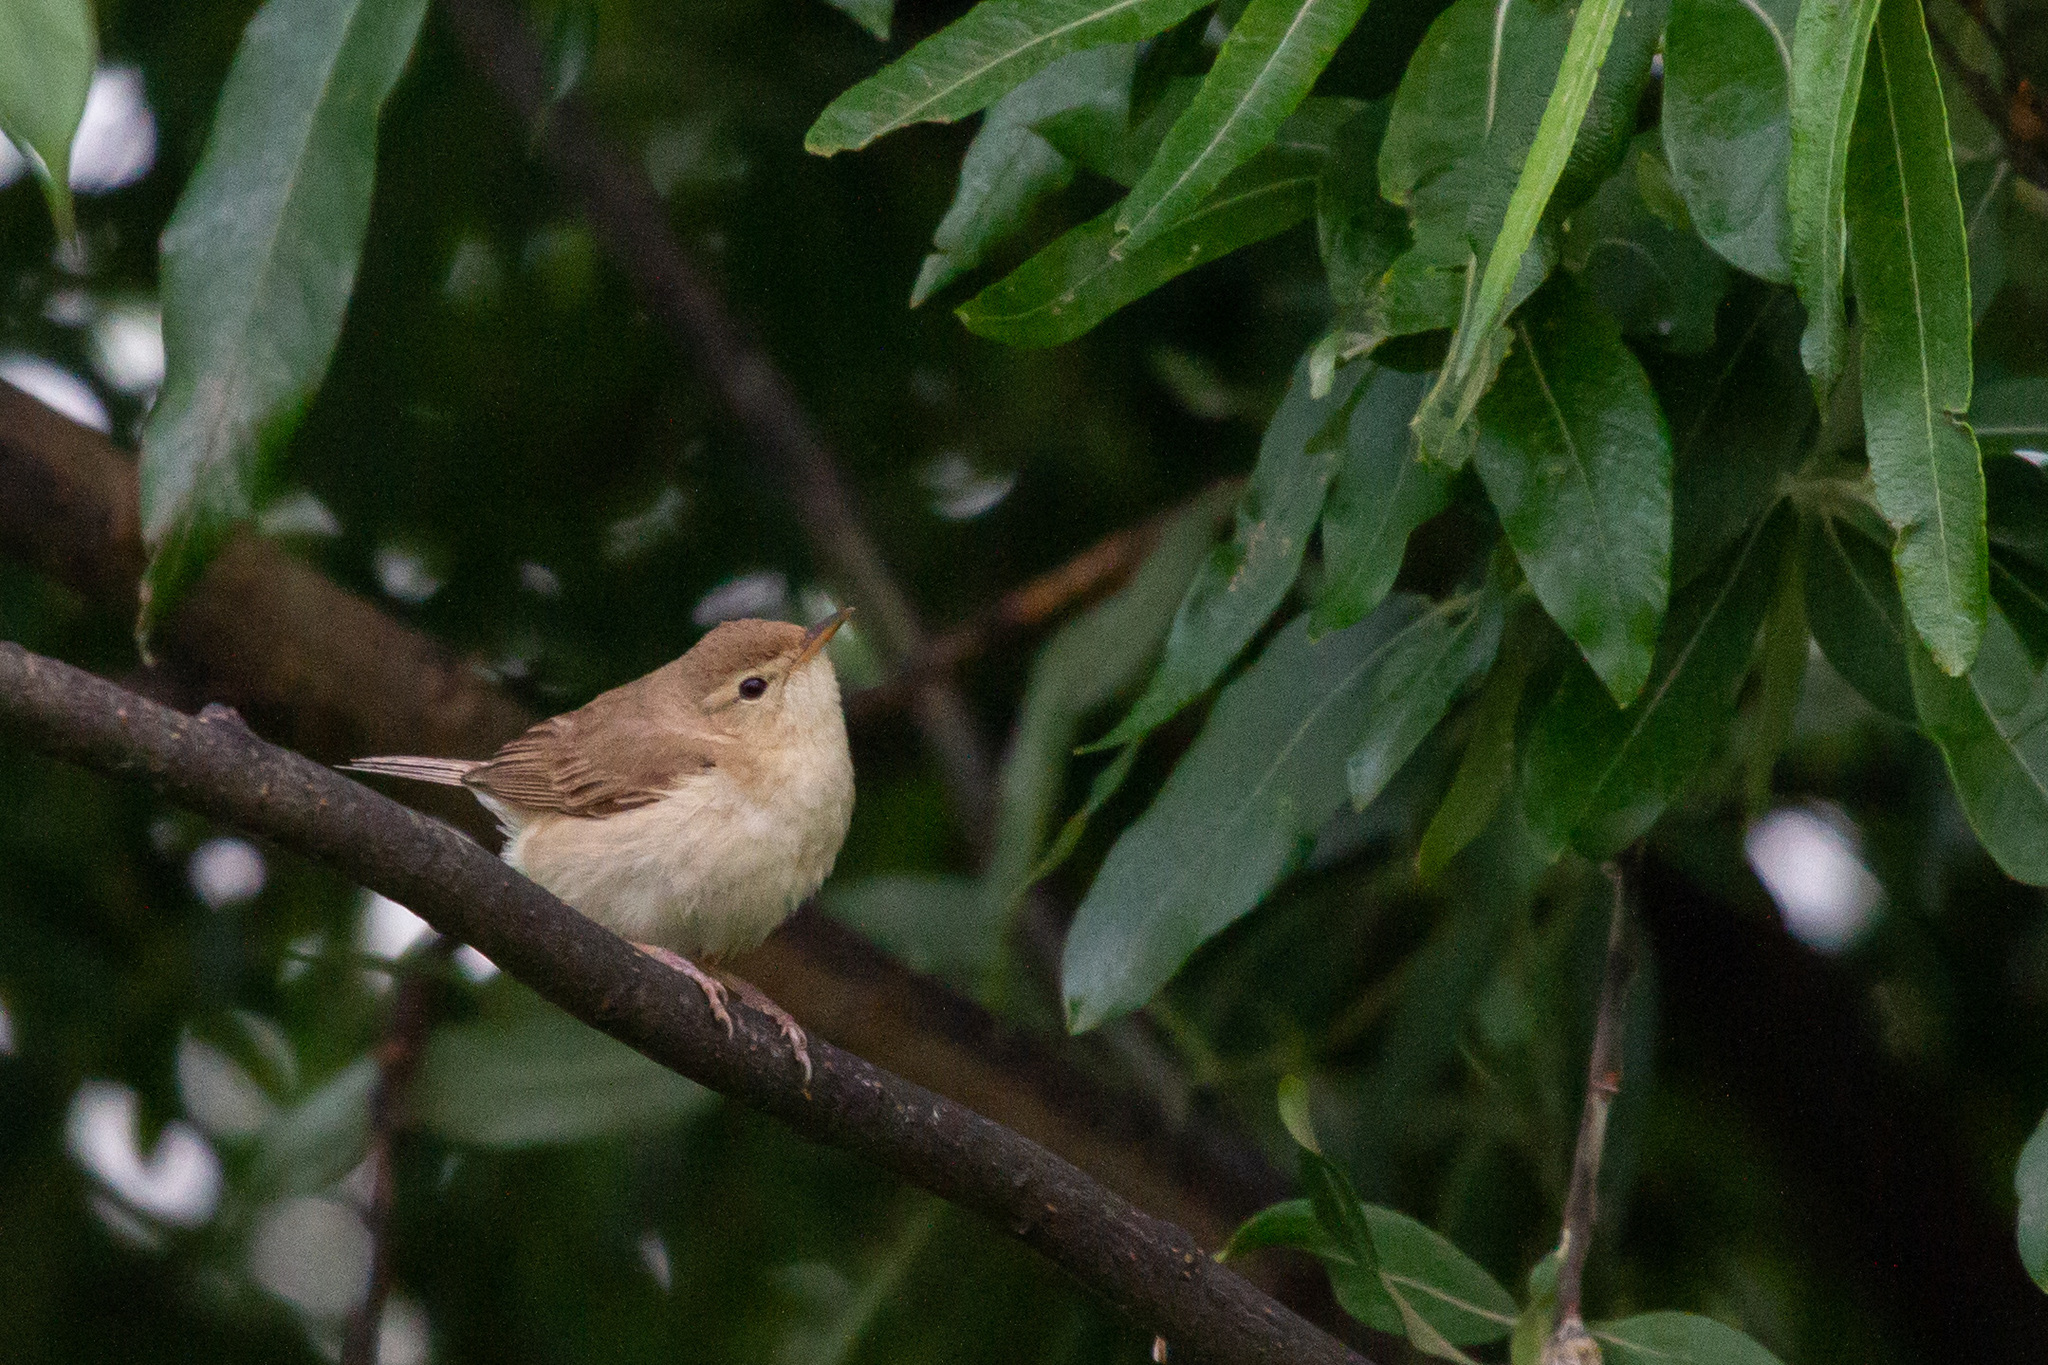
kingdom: Animalia
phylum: Chordata
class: Aves
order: Passeriformes
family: Acrocephalidae
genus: Iduna
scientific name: Iduna caligata
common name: Booted warbler
